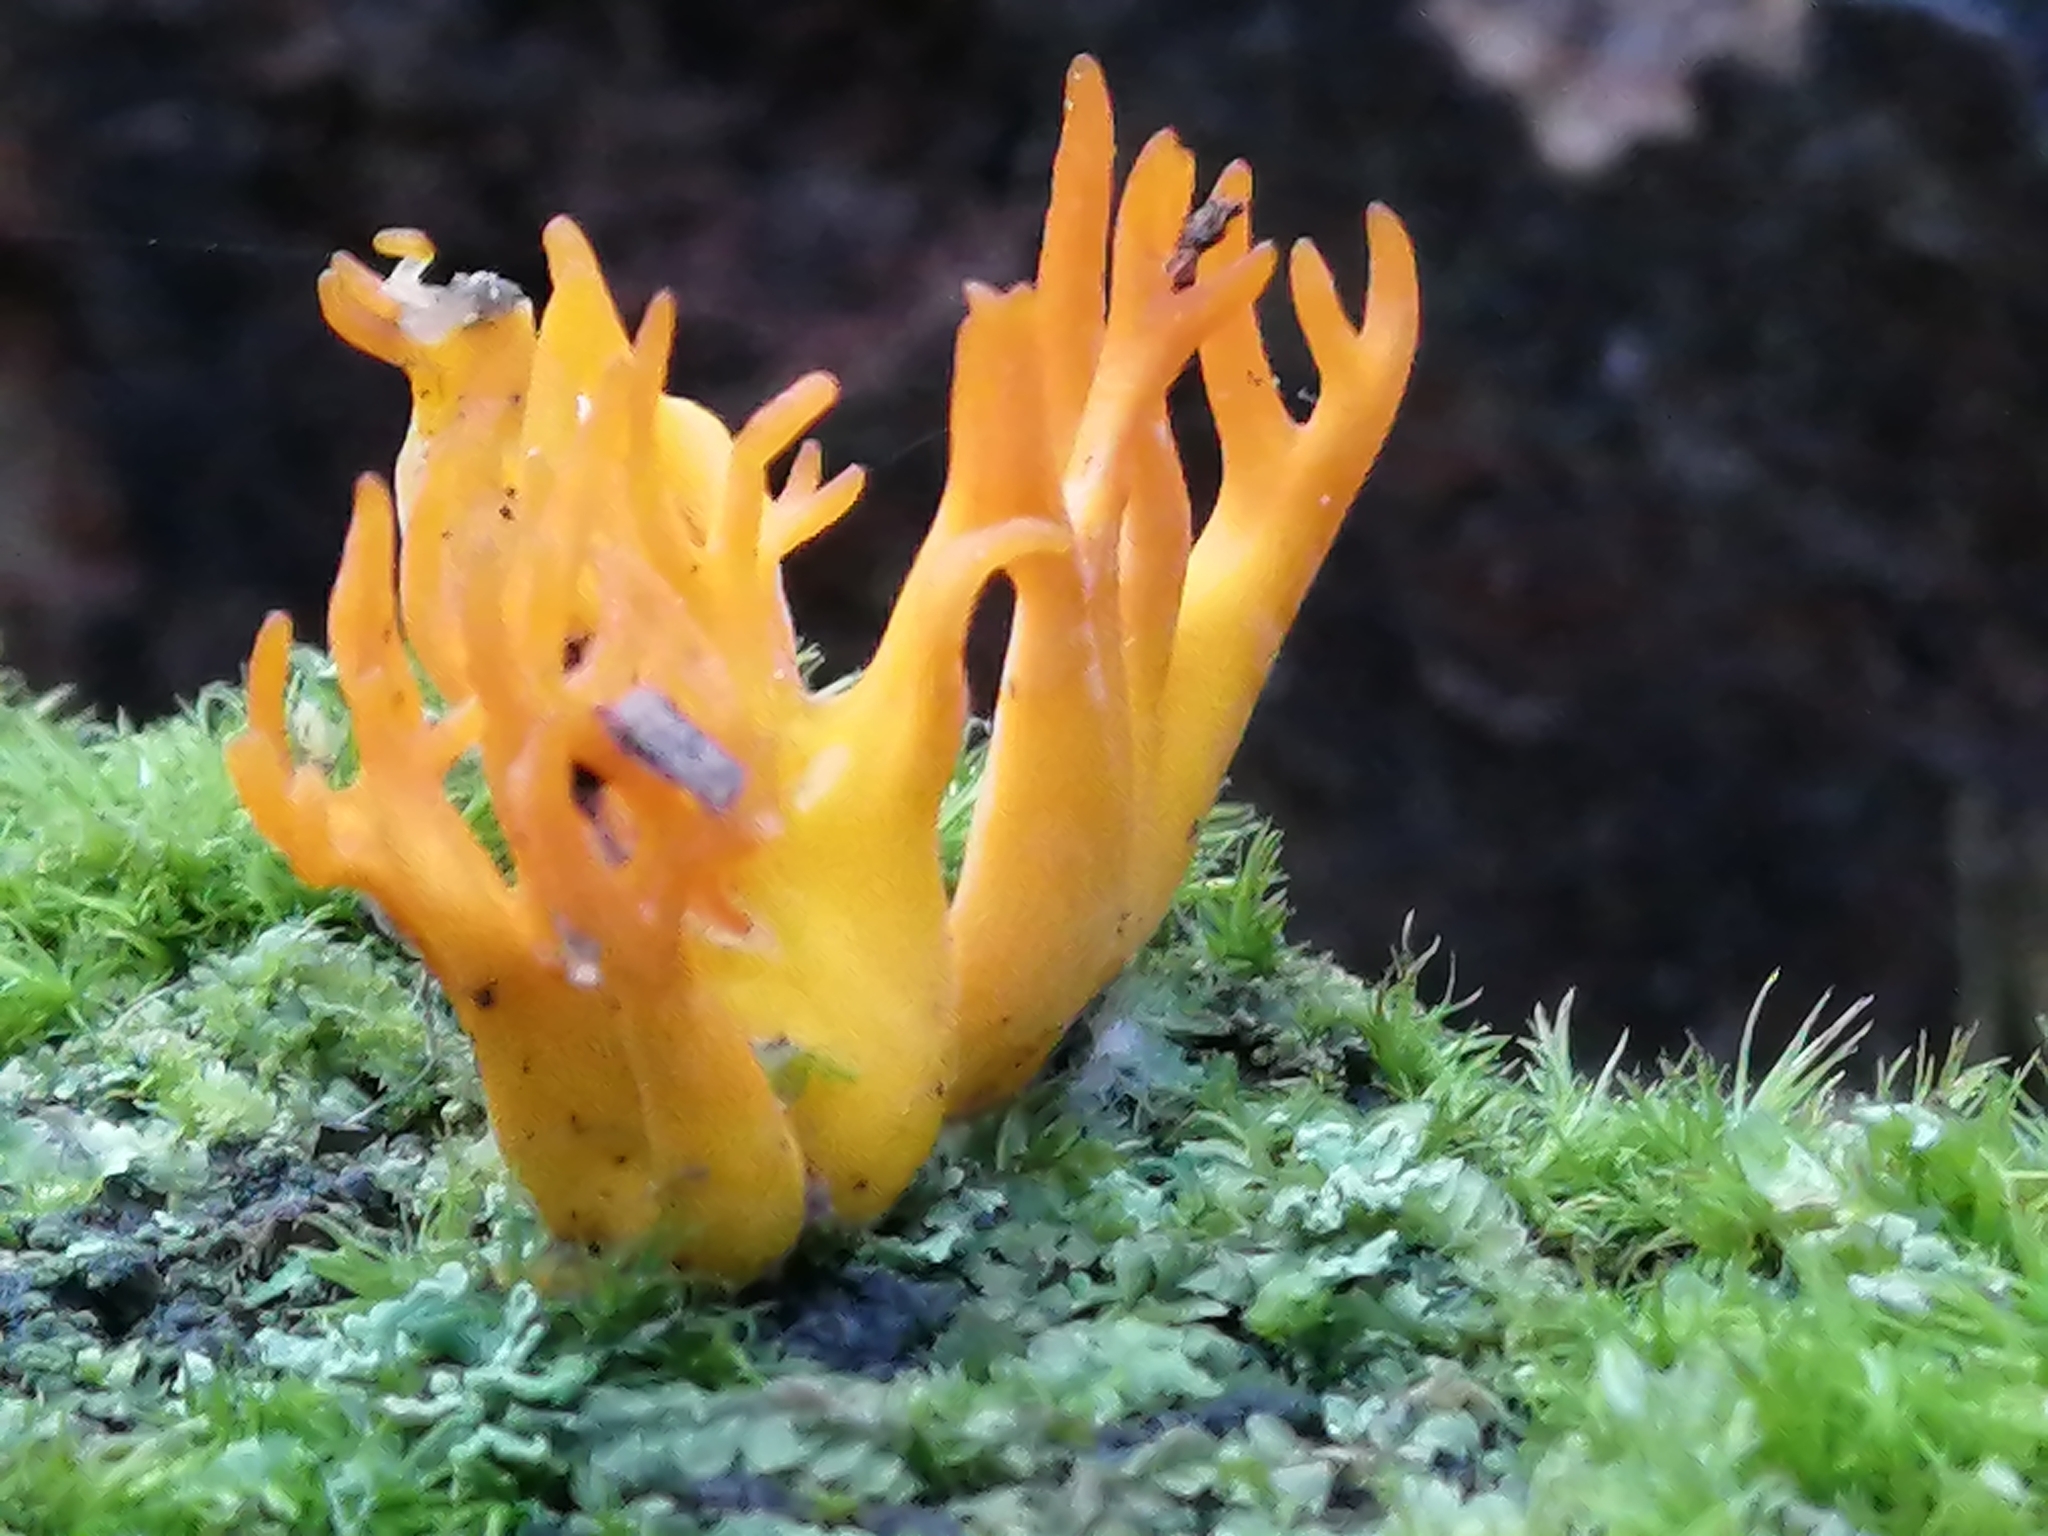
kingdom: Fungi
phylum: Basidiomycota
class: Dacrymycetes
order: Dacrymycetales
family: Dacrymycetaceae
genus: Calocera
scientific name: Calocera viscosa
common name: Yellow stagshorn
